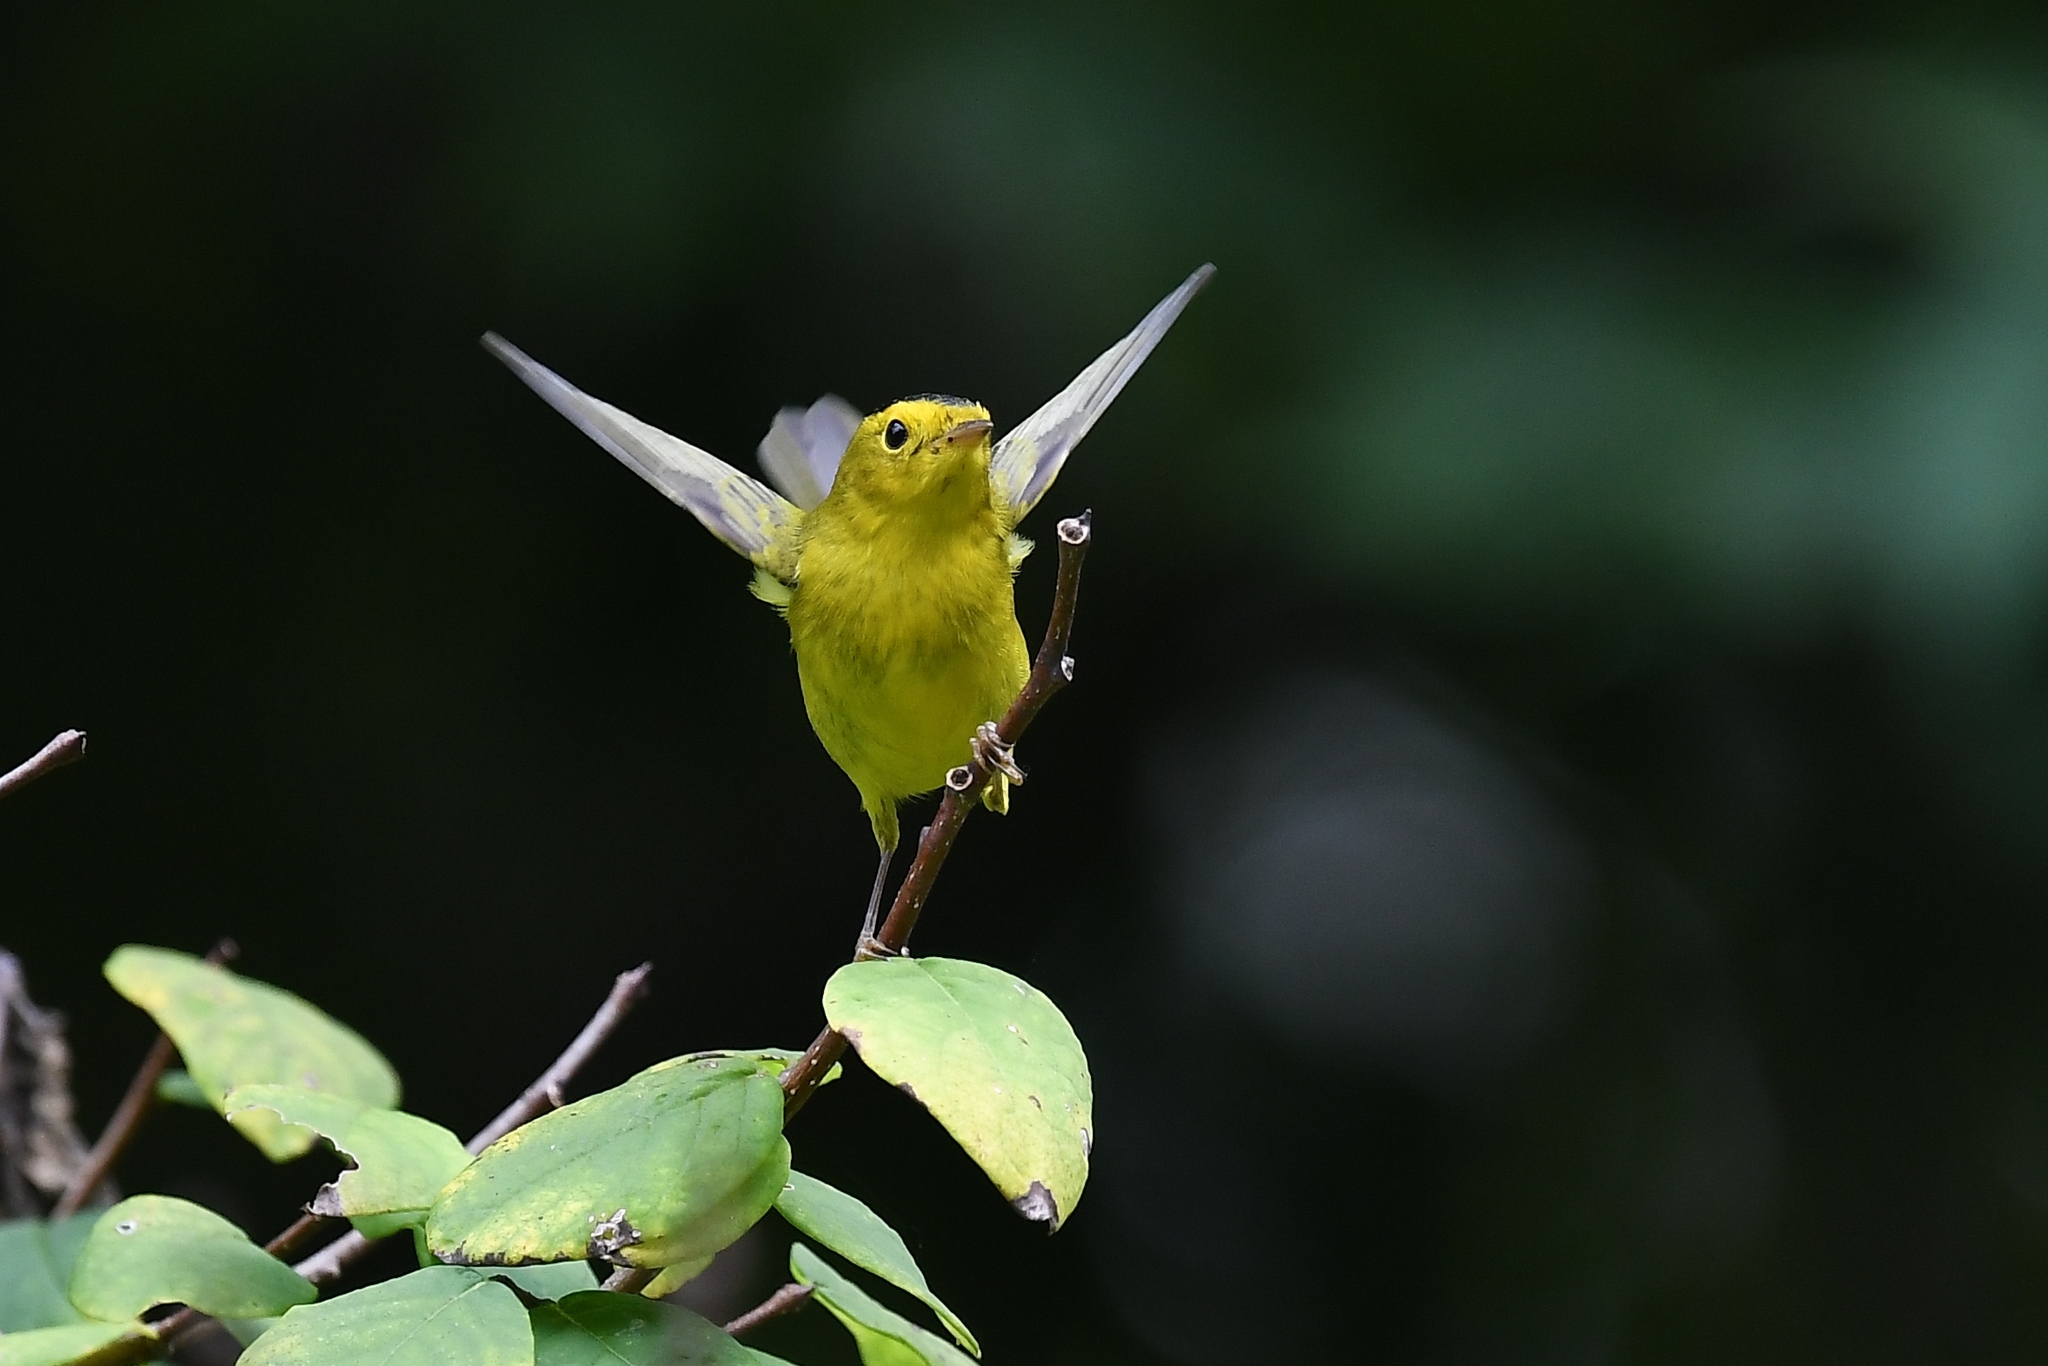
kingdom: Animalia
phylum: Chordata
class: Aves
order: Passeriformes
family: Parulidae
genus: Cardellina
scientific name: Cardellina pusilla
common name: Wilson's warbler
